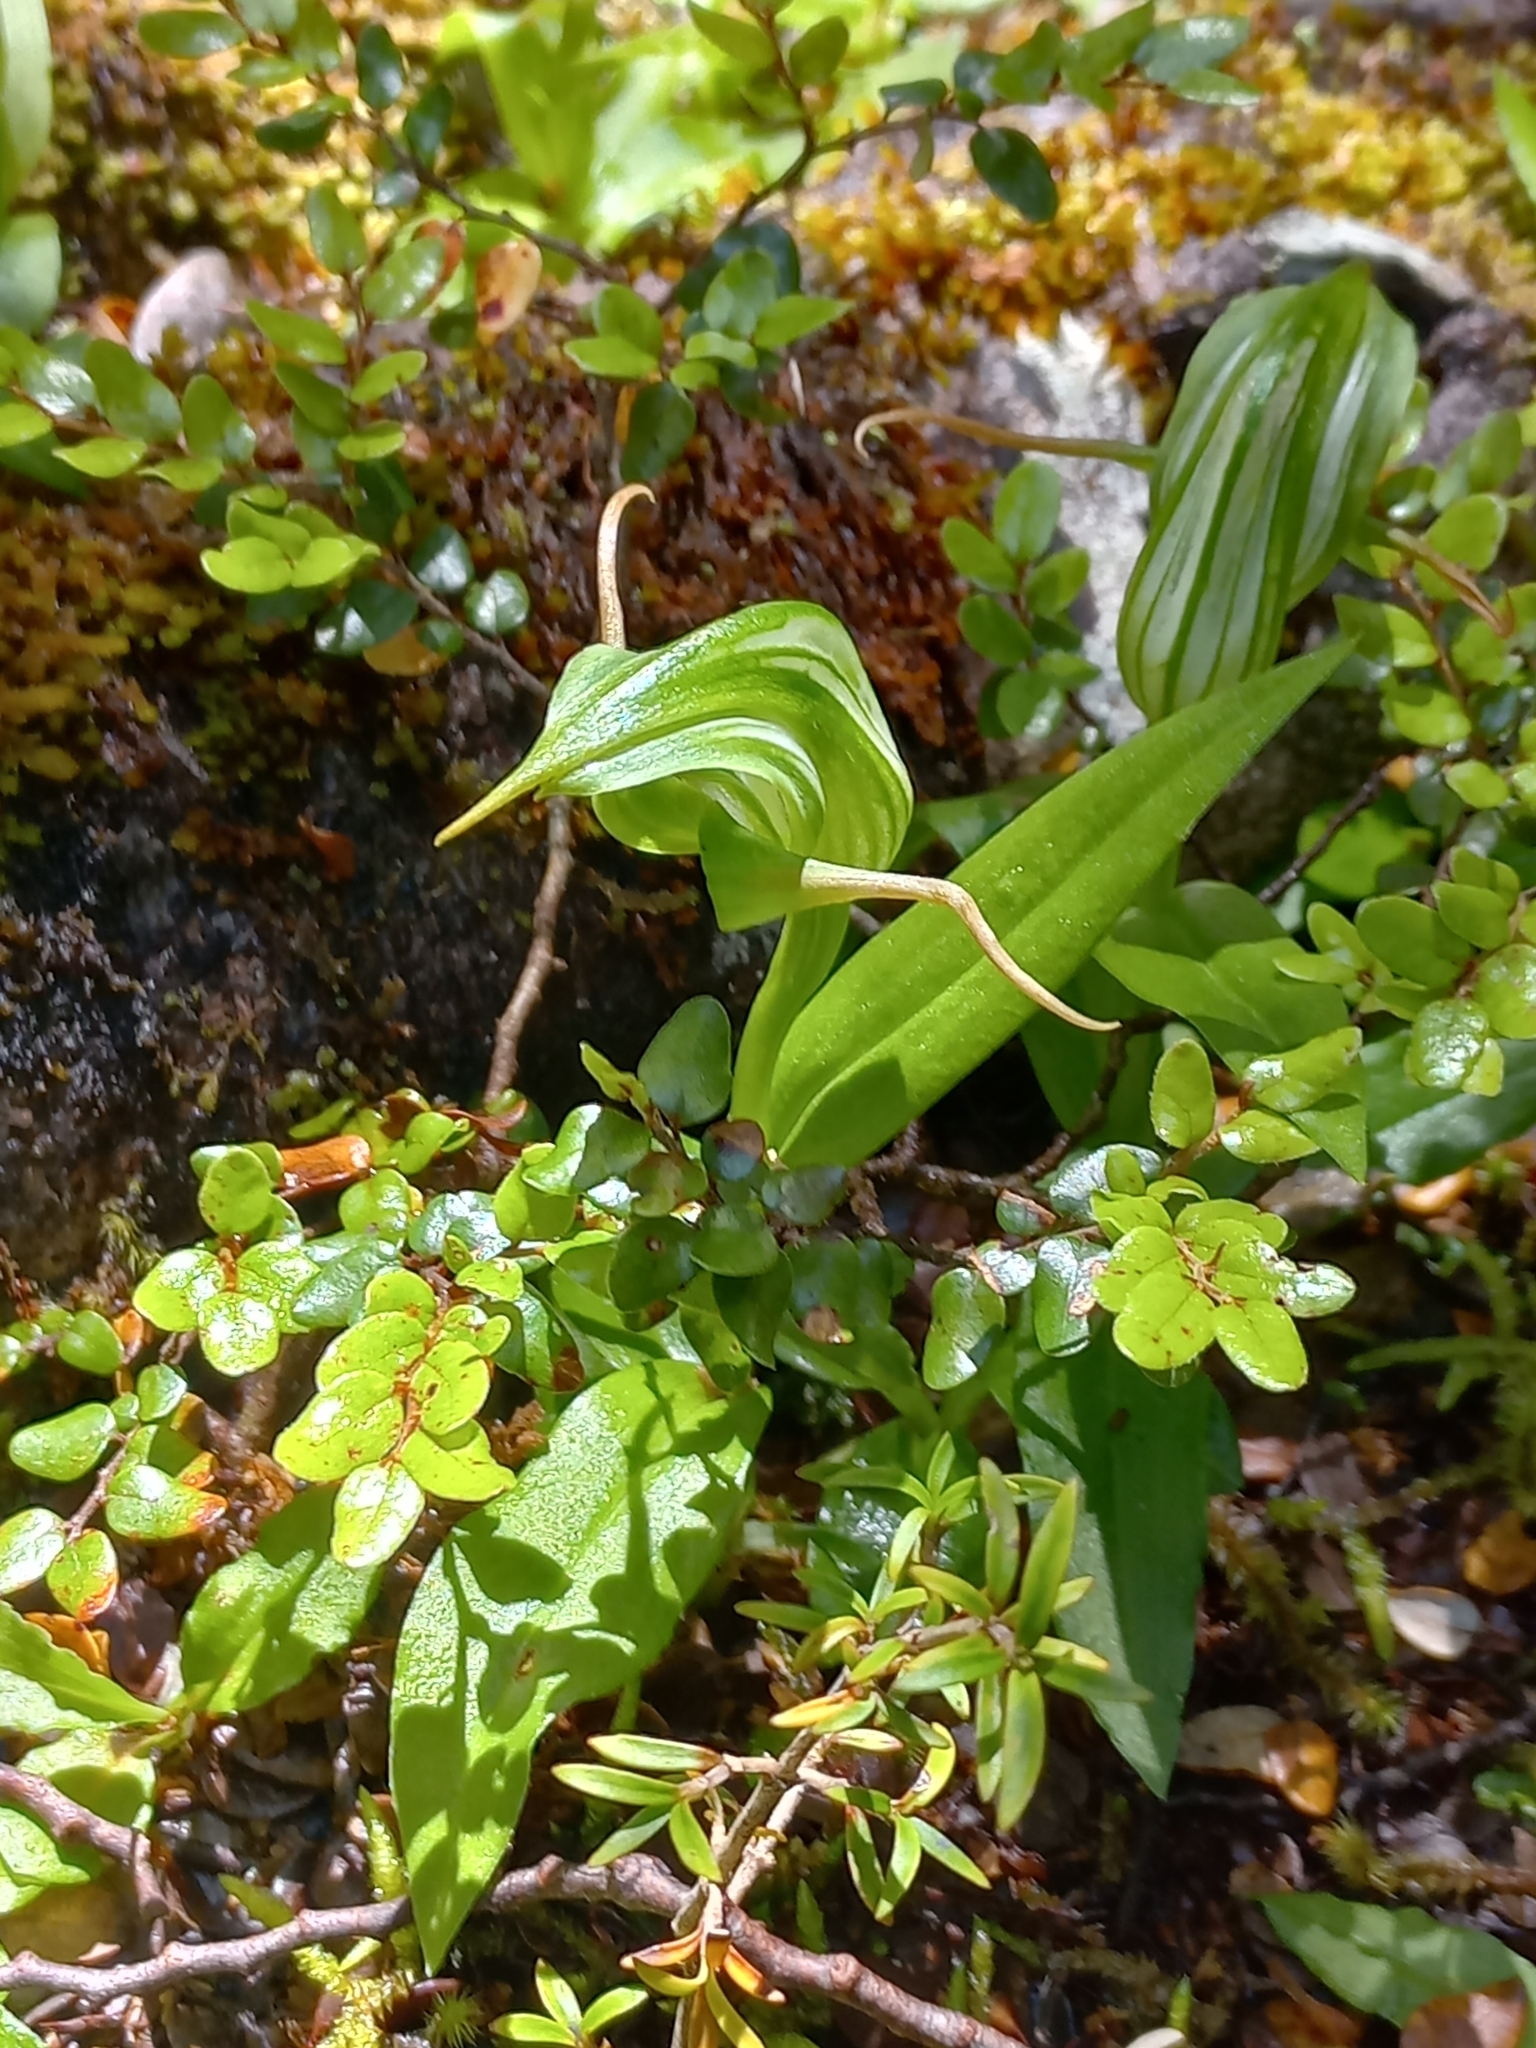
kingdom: Plantae
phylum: Tracheophyta
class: Liliopsida
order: Asparagales
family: Orchidaceae
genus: Pterostylis
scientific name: Pterostylis australis
